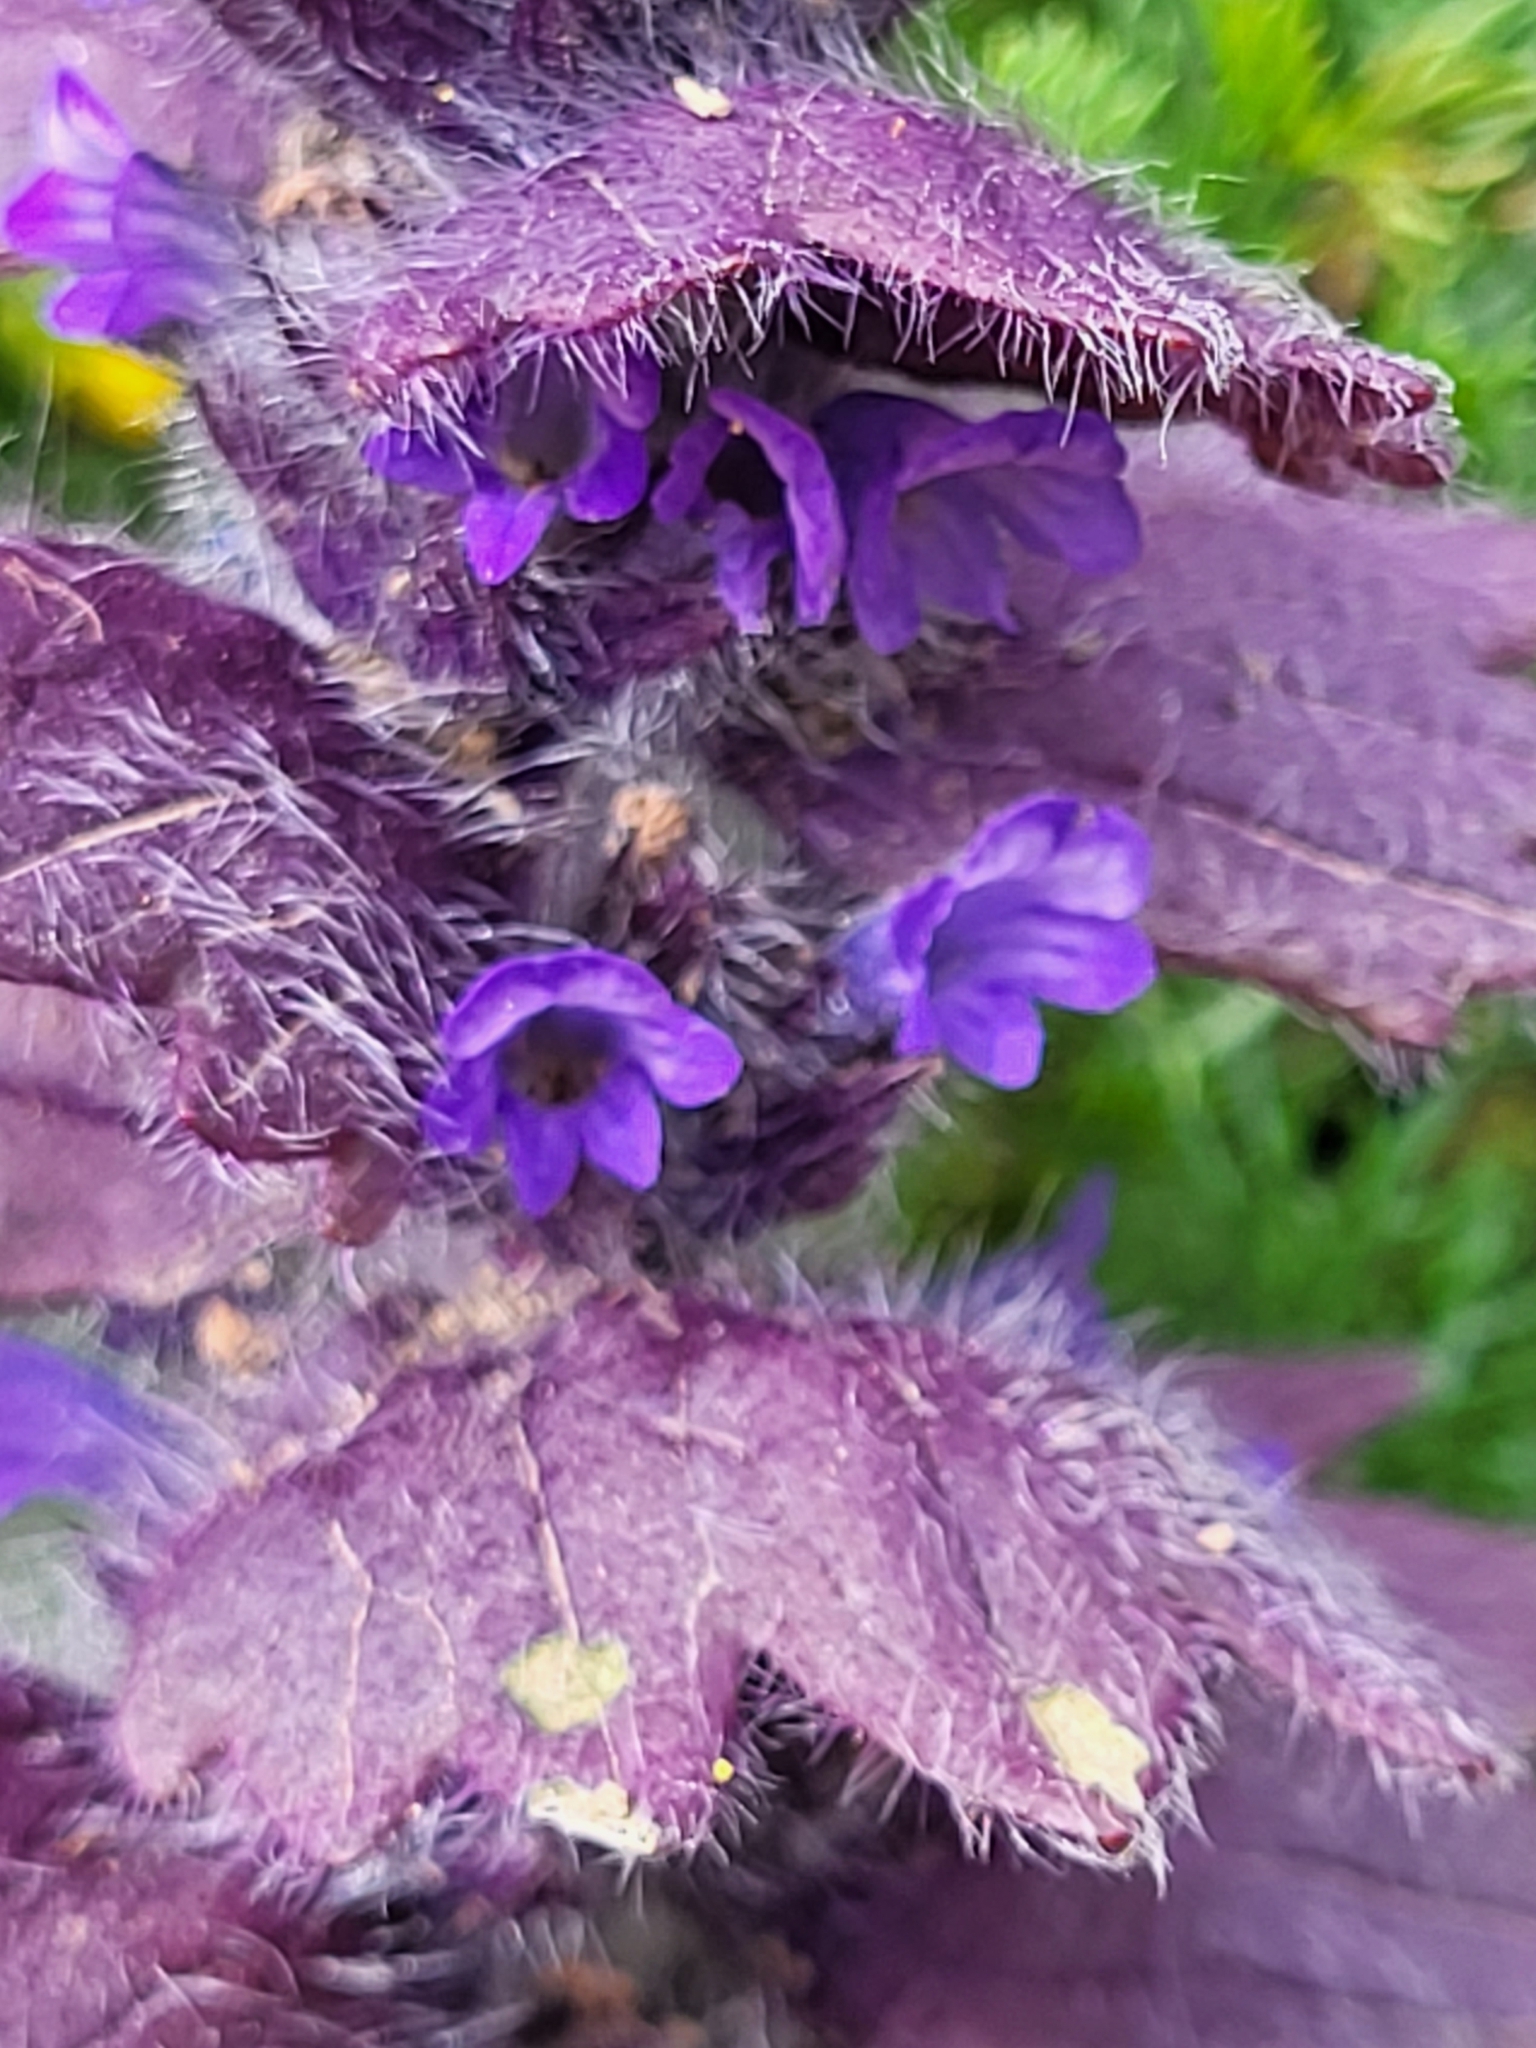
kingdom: Plantae
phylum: Tracheophyta
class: Magnoliopsida
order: Lamiales
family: Lamiaceae
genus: Ajuga
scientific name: Ajuga orientalis
